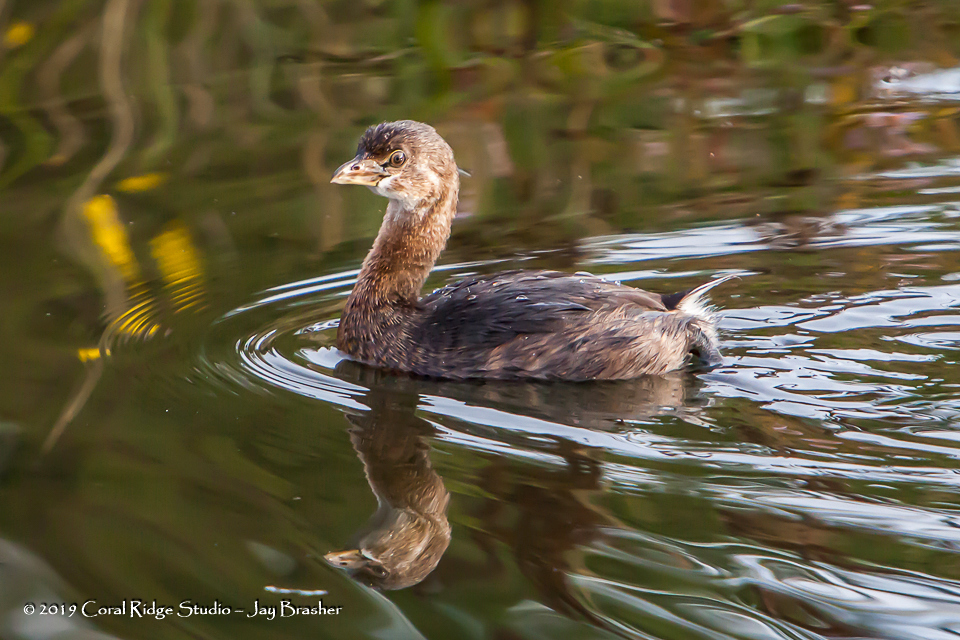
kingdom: Animalia
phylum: Chordata
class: Aves
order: Podicipediformes
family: Podicipedidae
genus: Podilymbus
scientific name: Podilymbus podiceps
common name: Pied-billed grebe
